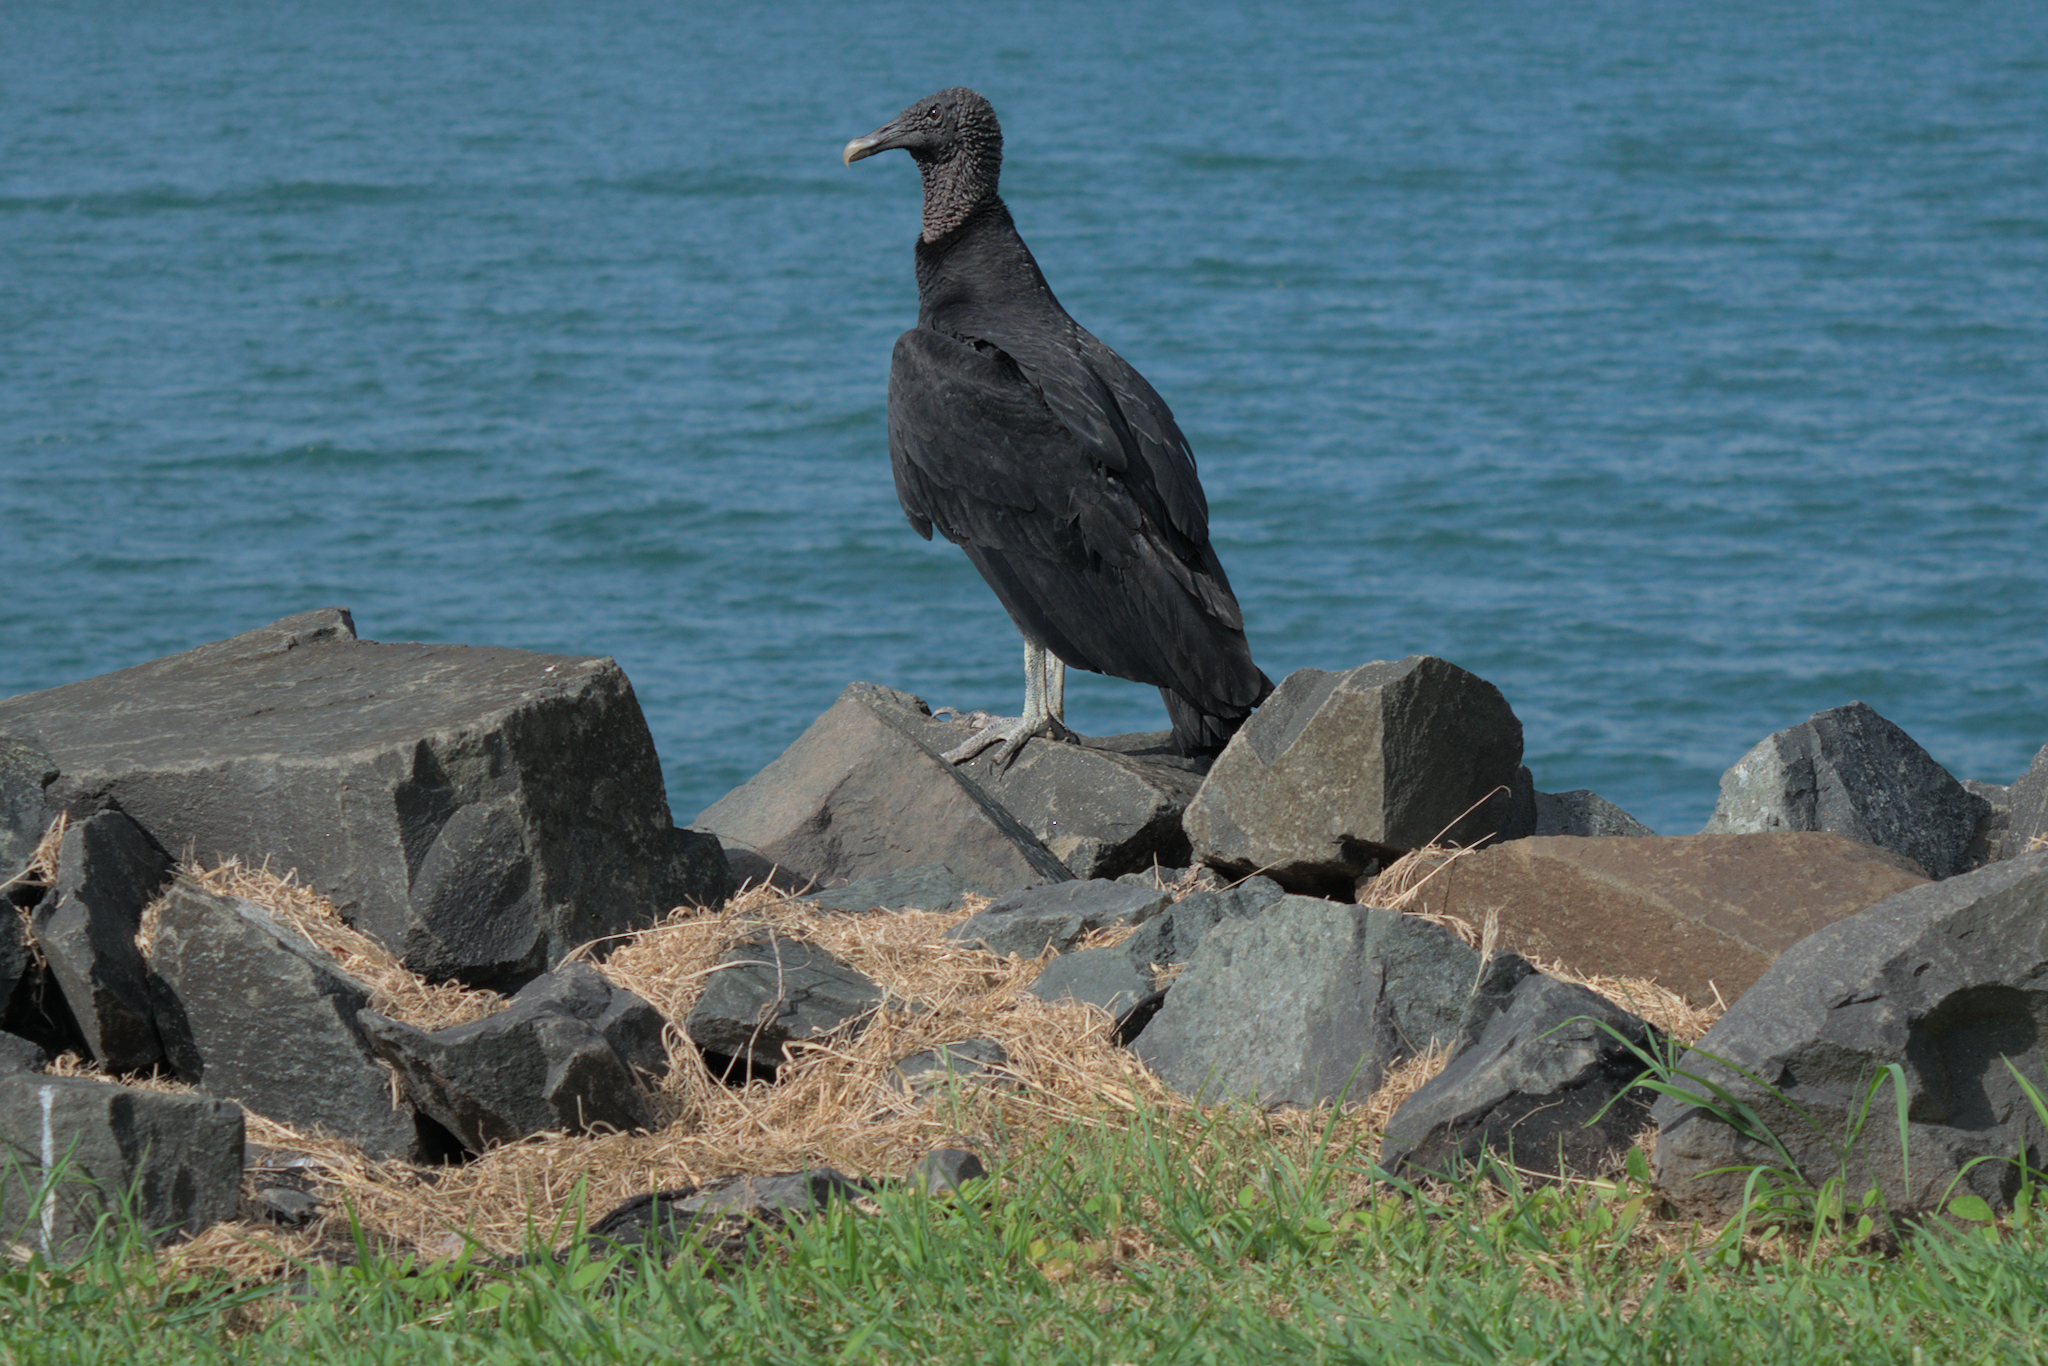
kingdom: Animalia
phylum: Chordata
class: Aves
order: Accipitriformes
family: Cathartidae
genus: Coragyps
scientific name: Coragyps atratus
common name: Black vulture
